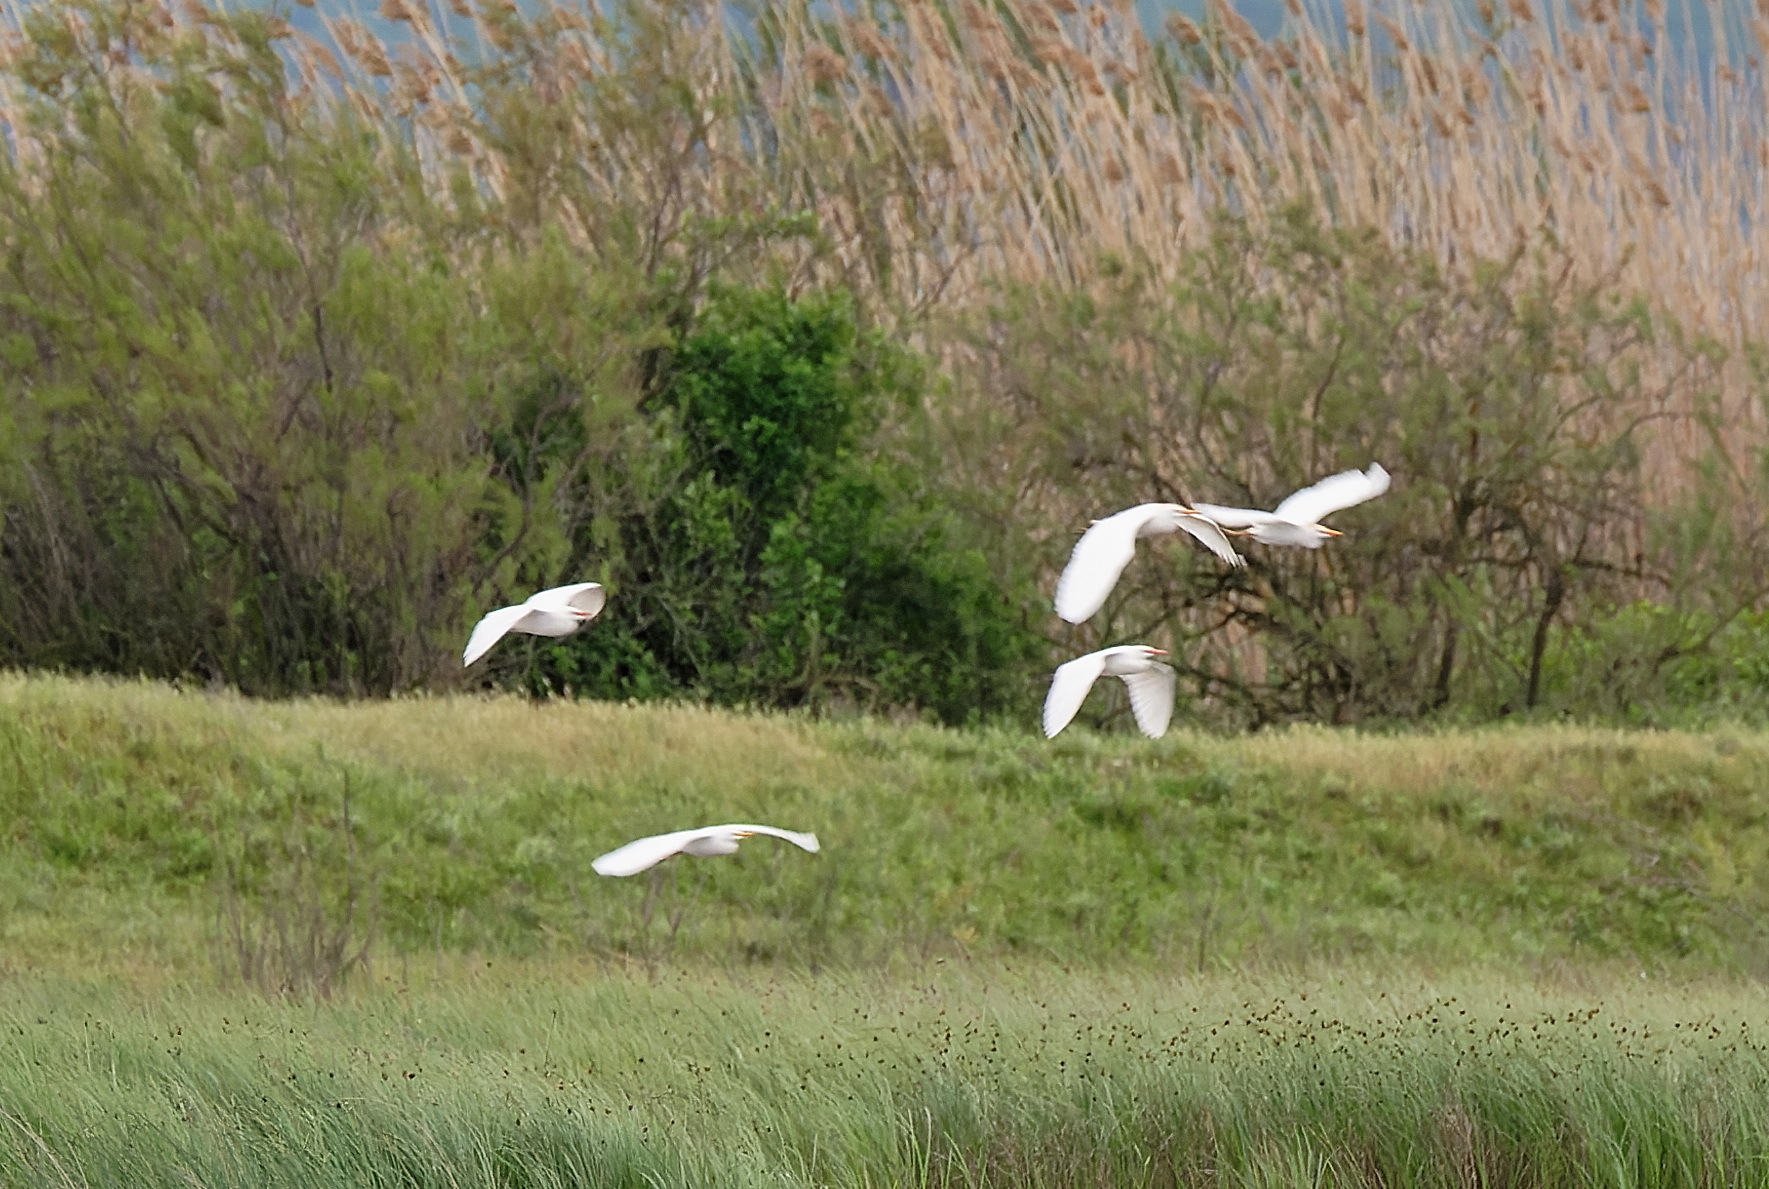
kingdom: Animalia
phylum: Chordata
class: Aves
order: Pelecaniformes
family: Ardeidae
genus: Bubulcus
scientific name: Bubulcus ibis
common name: Cattle egret
